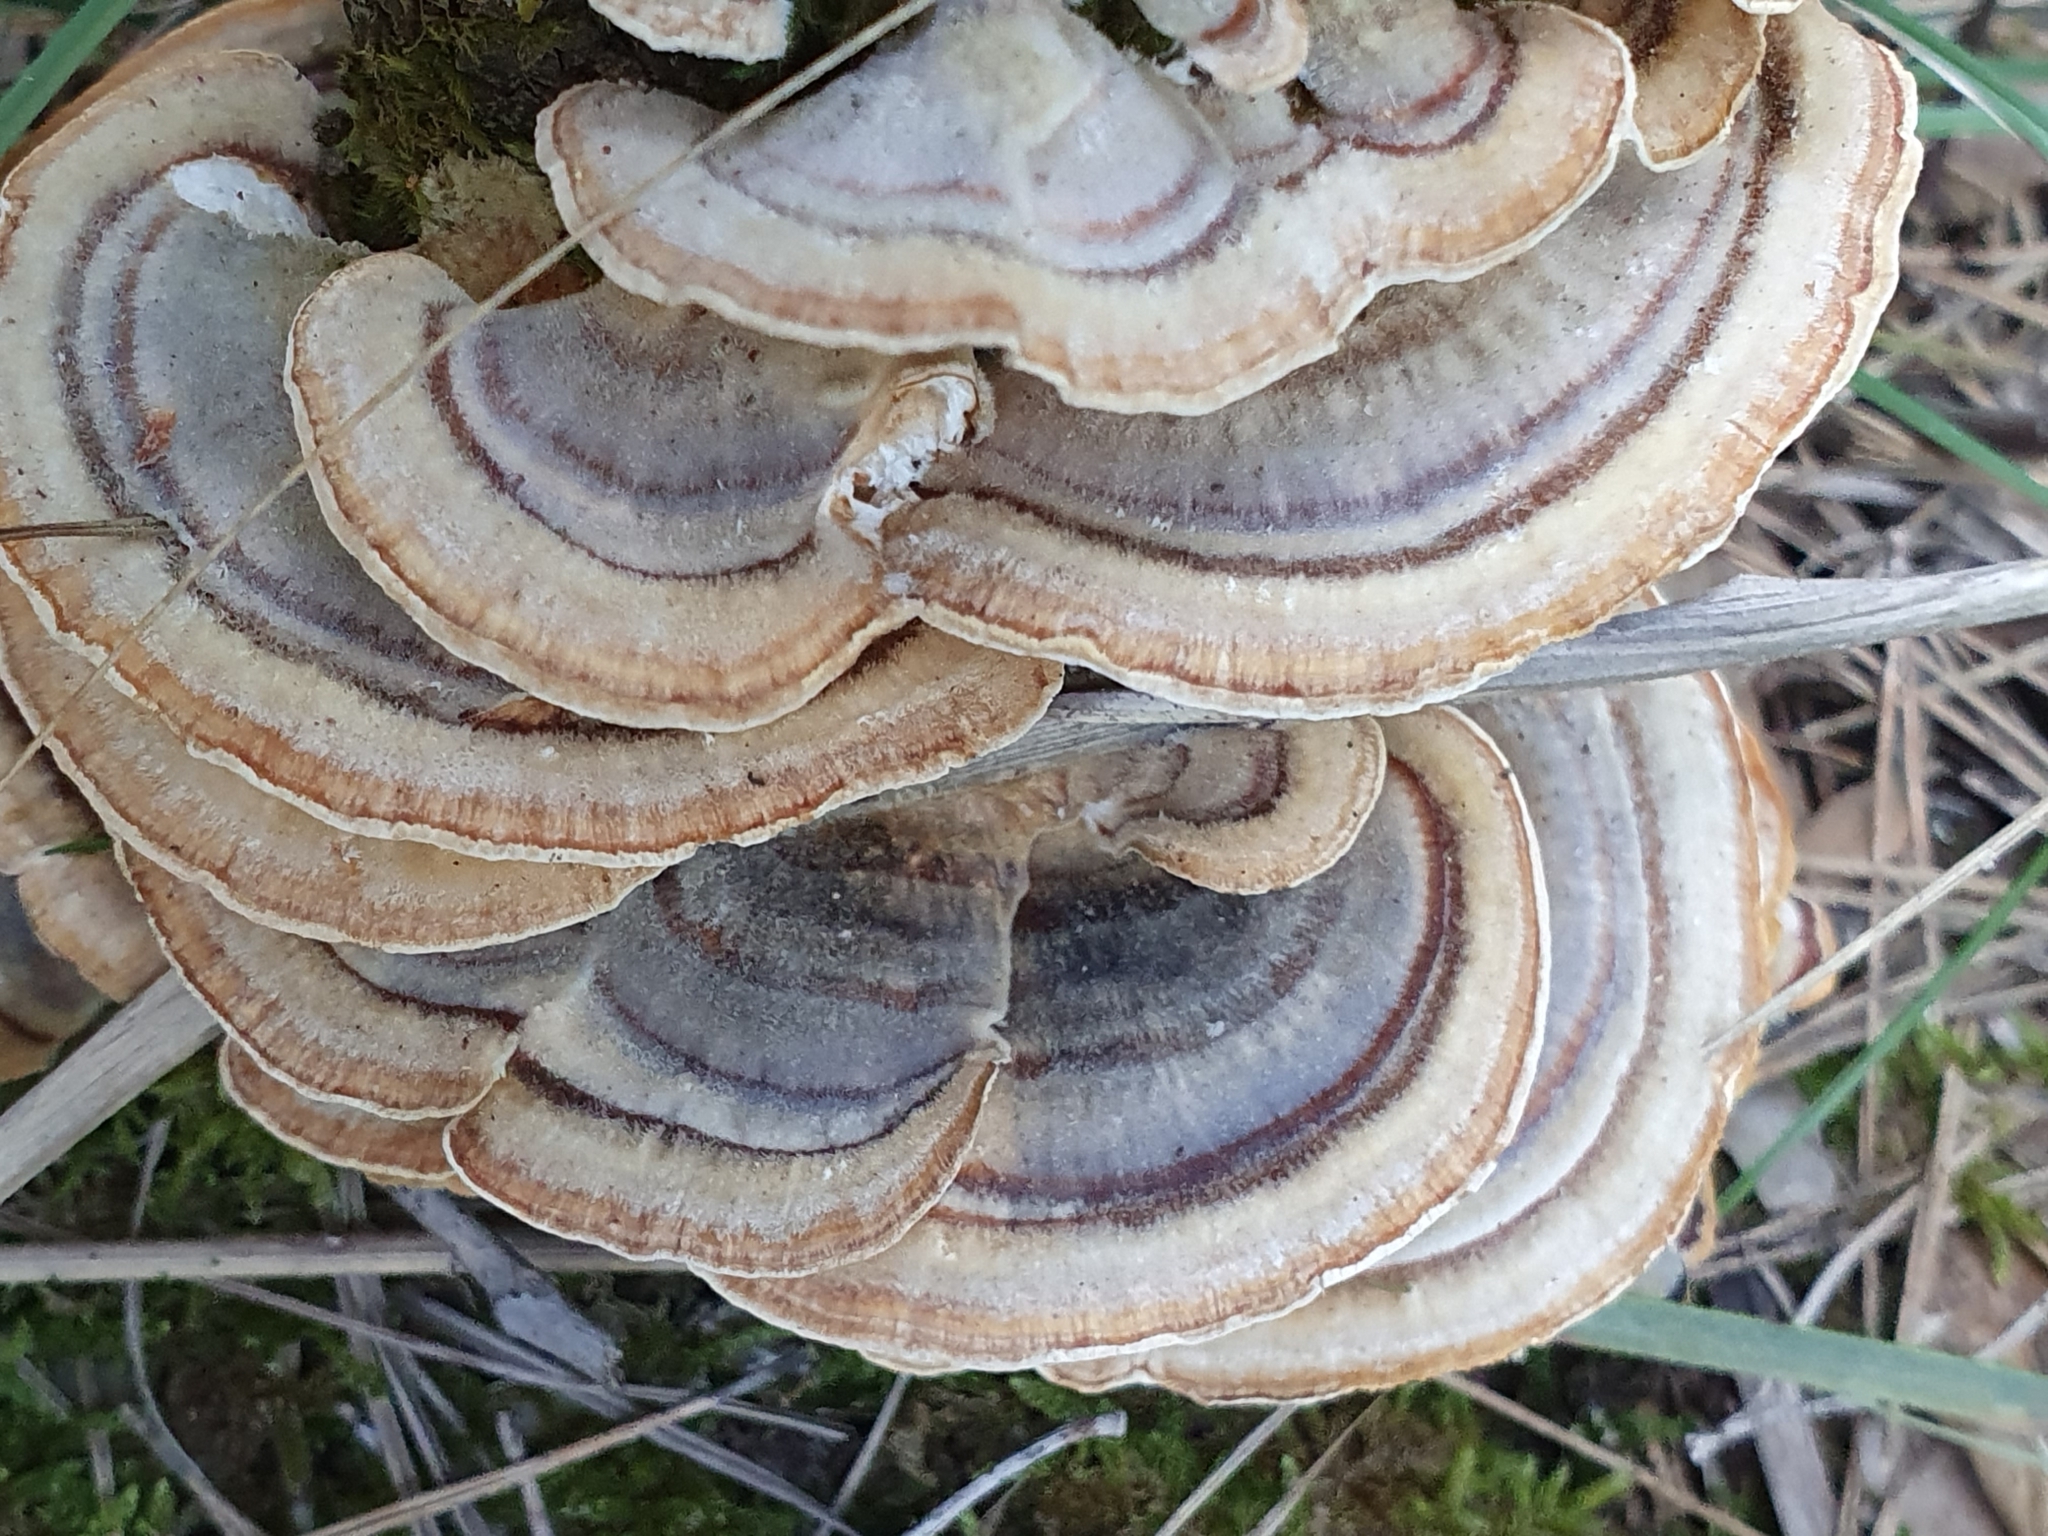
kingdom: Fungi
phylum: Basidiomycota
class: Agaricomycetes
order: Polyporales
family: Polyporaceae
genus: Trametes
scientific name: Trametes versicolor
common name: Turkeytail
